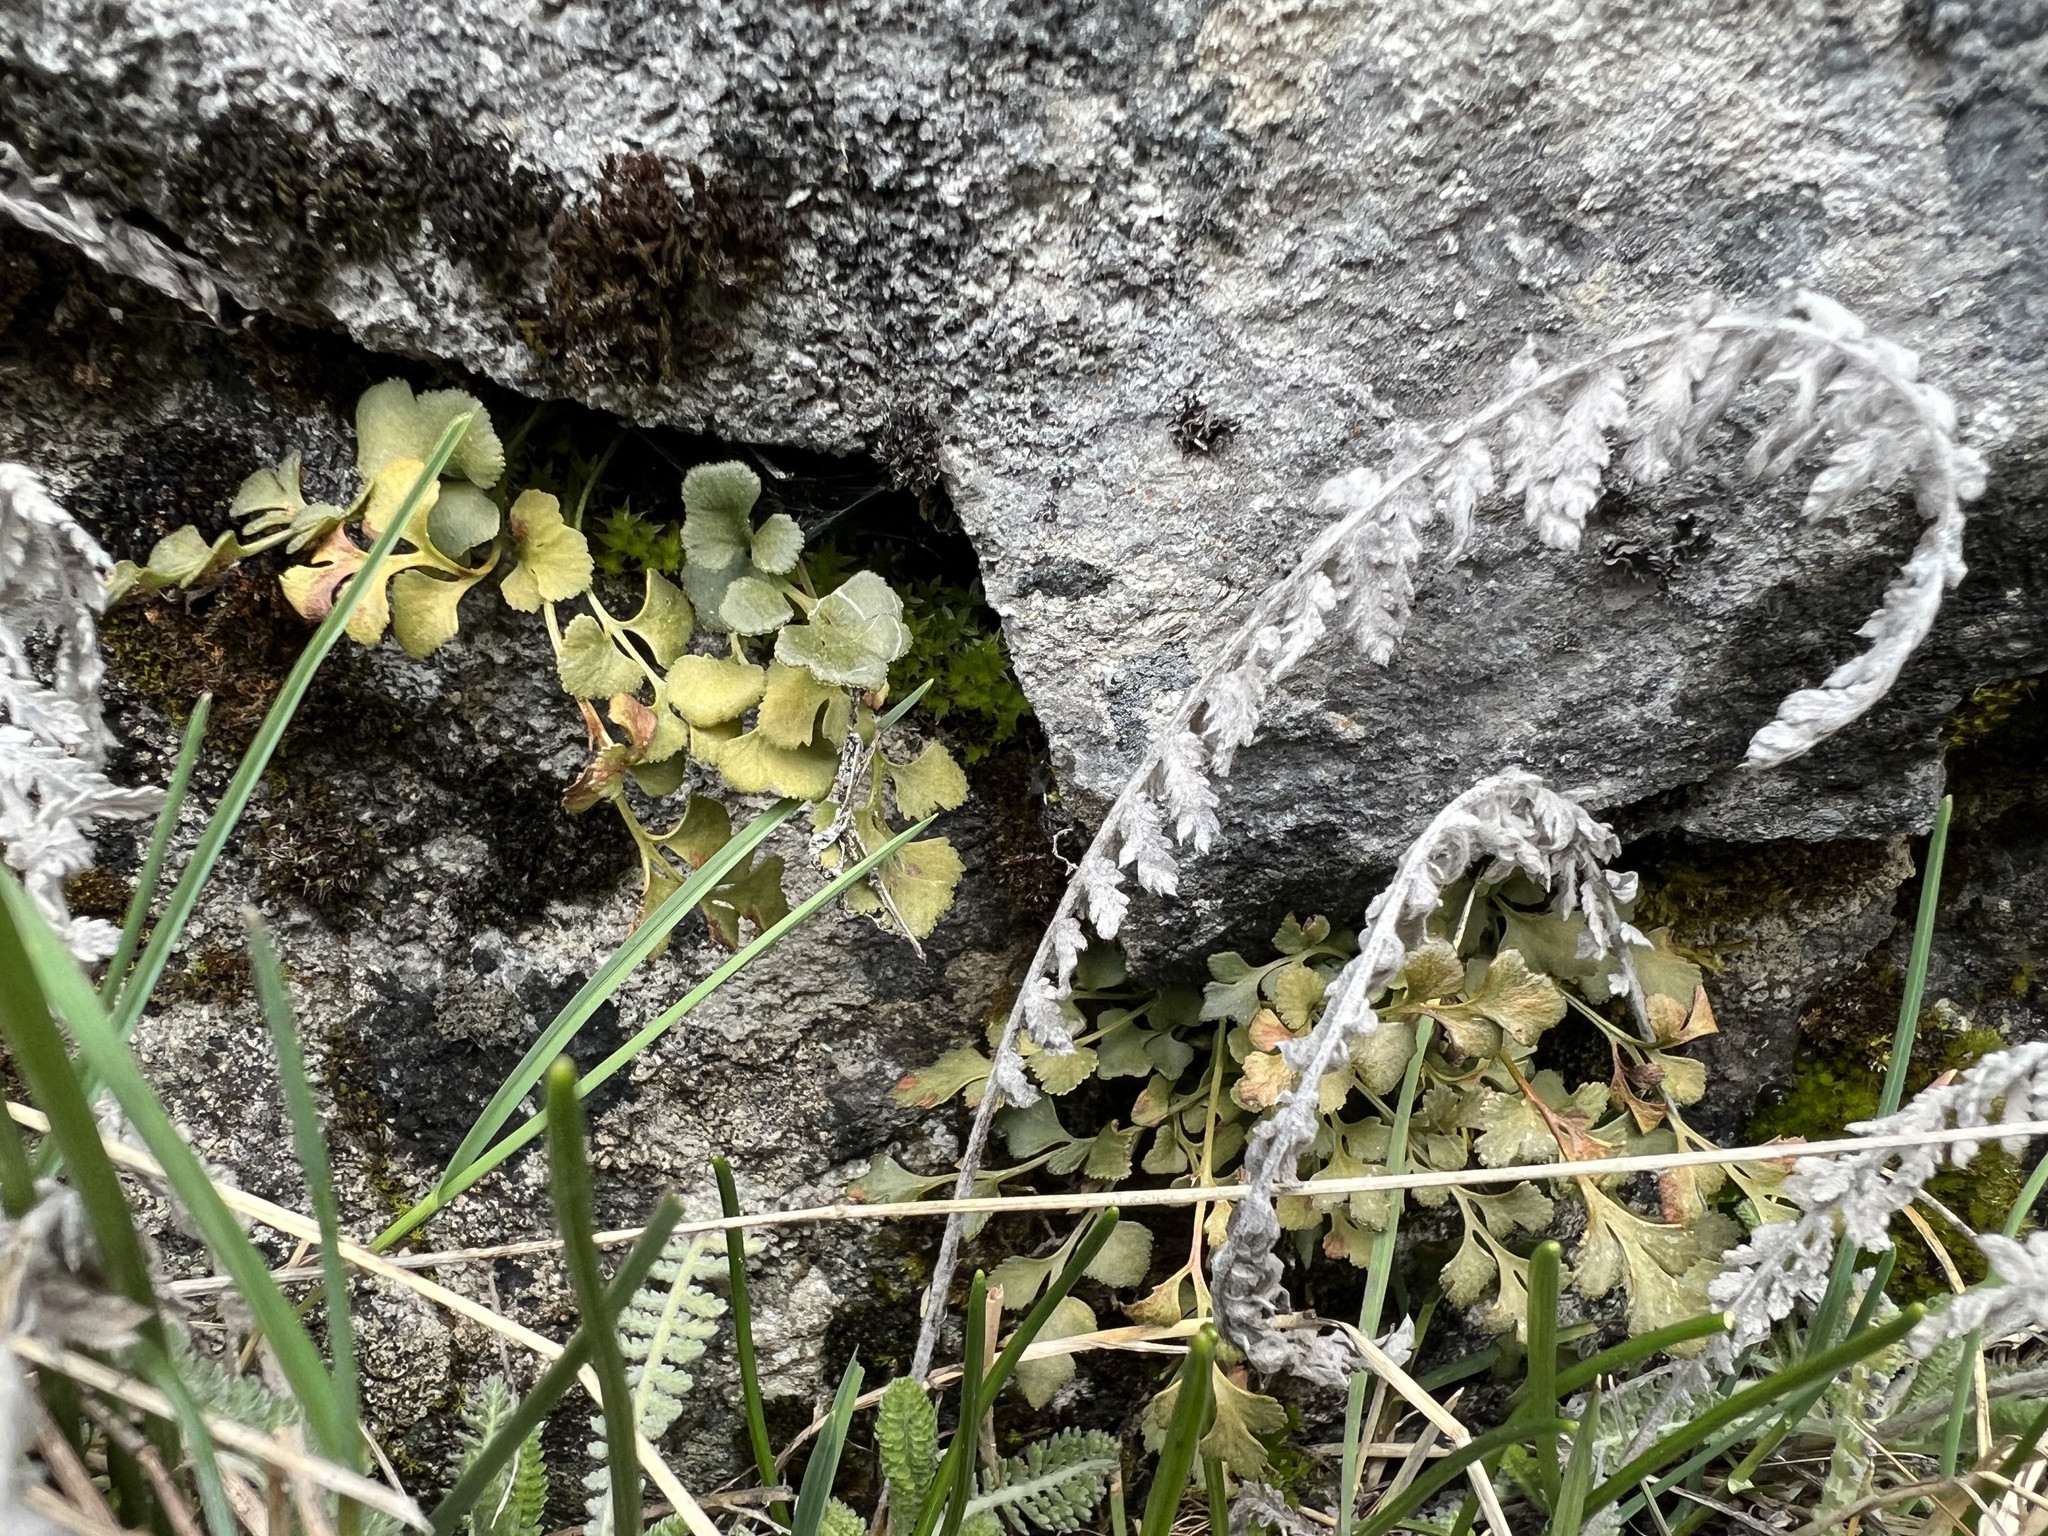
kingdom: Plantae
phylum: Tracheophyta
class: Polypodiopsida
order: Polypodiales
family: Aspleniaceae
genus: Asplenium
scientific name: Asplenium ruta-muraria
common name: Wall-rue
